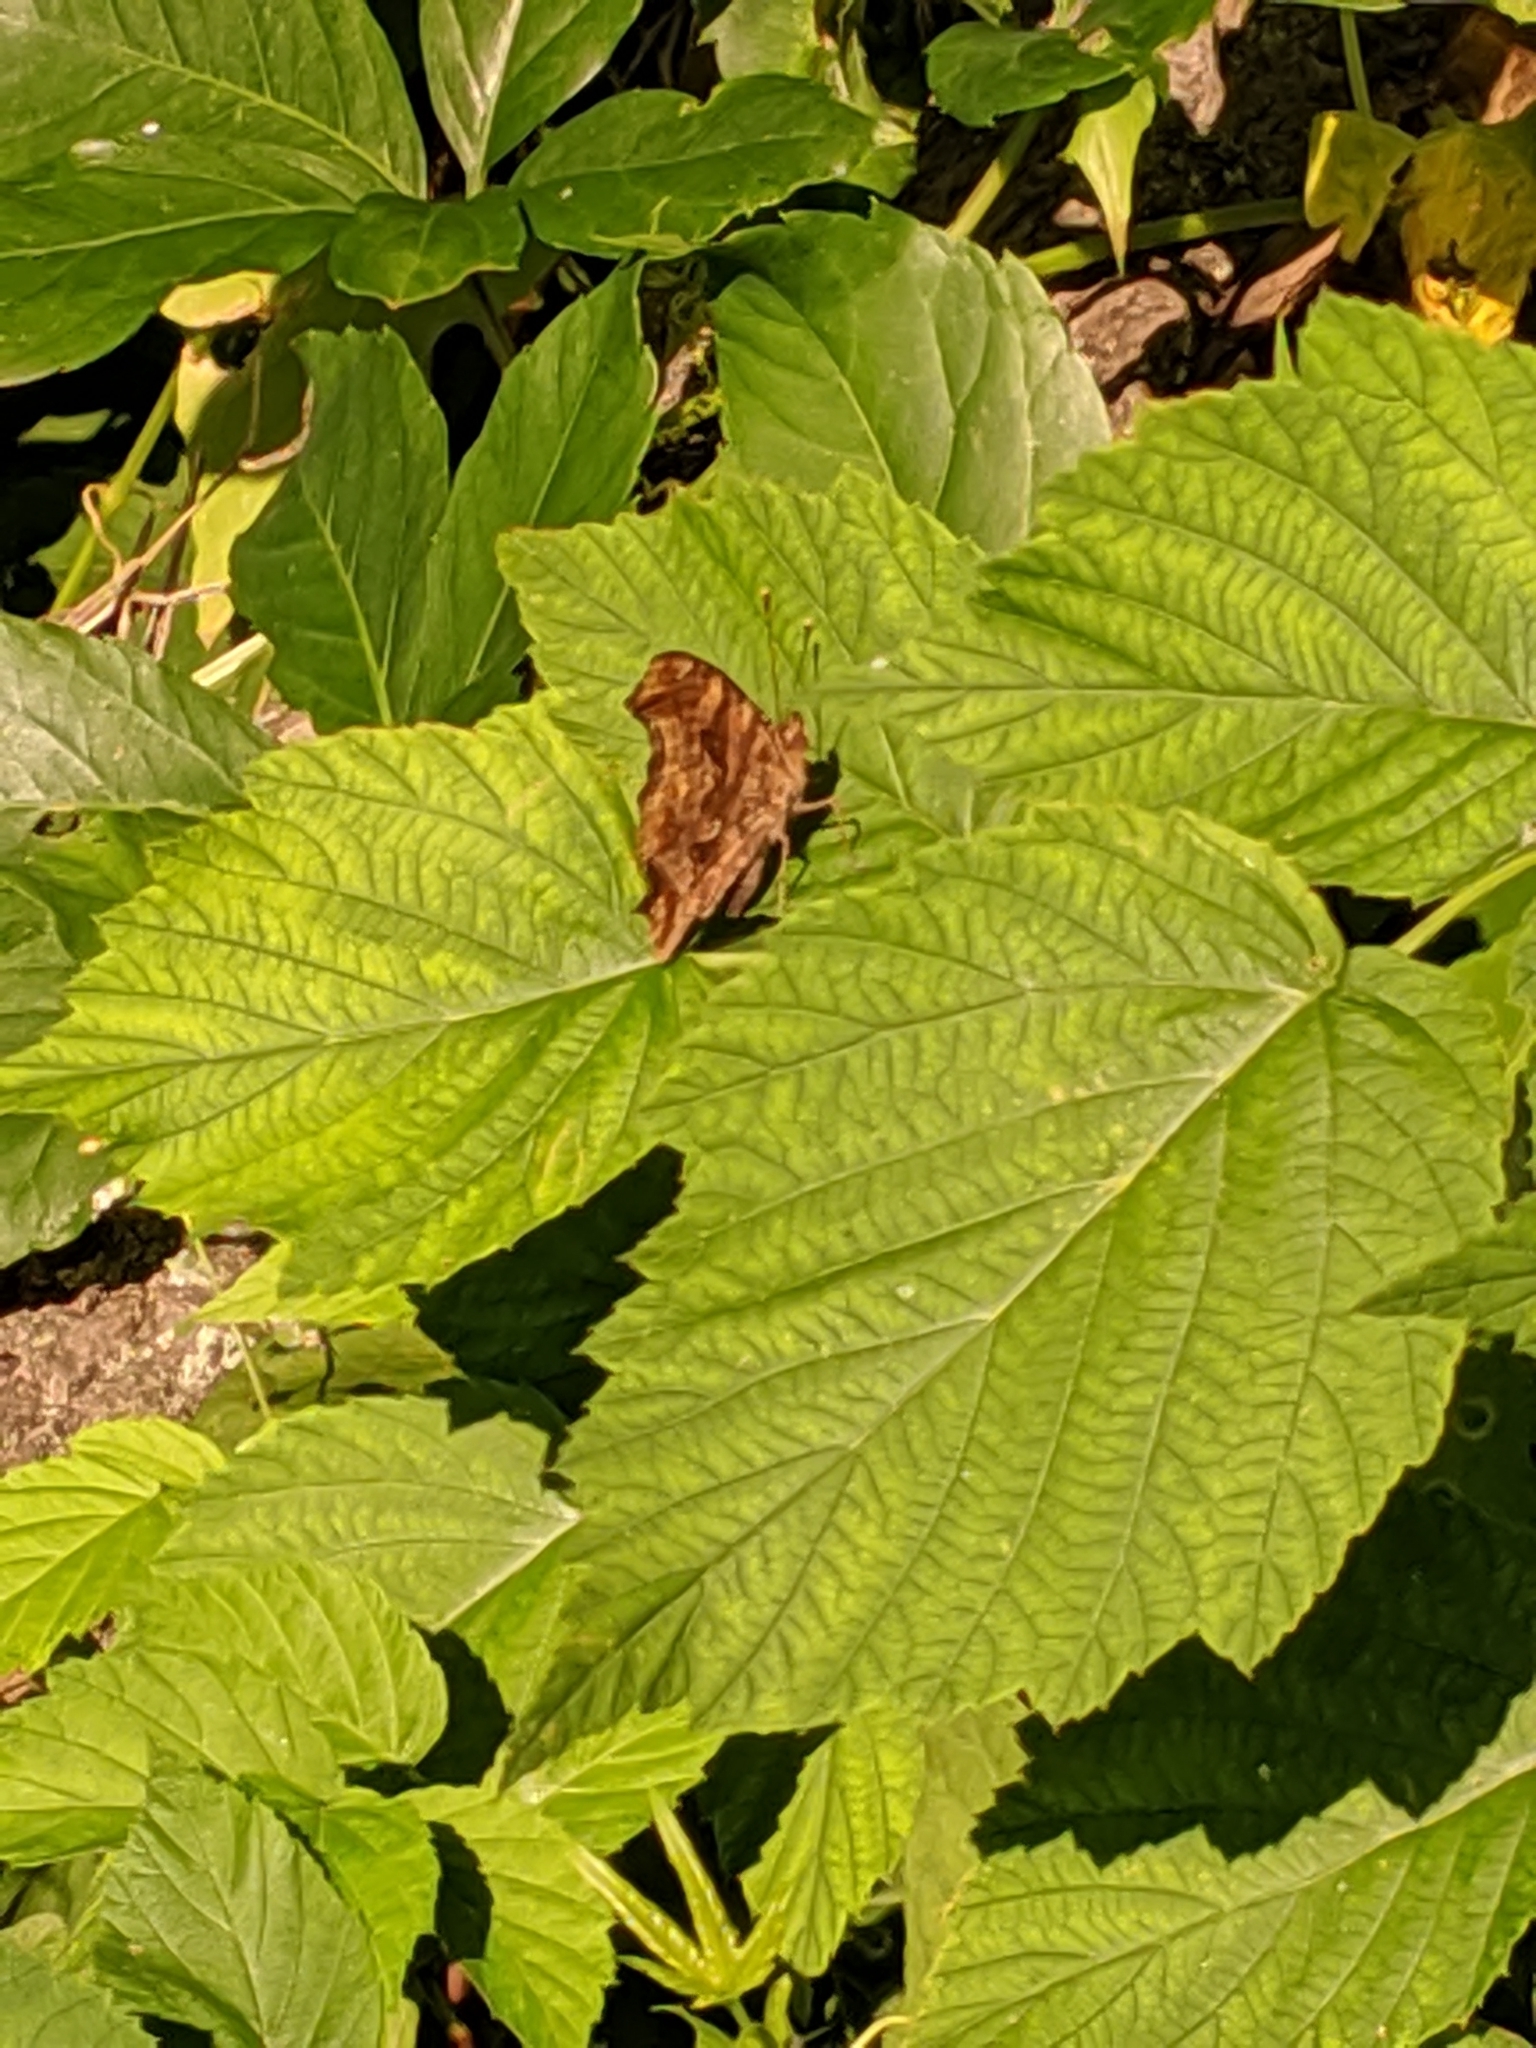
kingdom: Animalia
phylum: Arthropoda
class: Insecta
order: Lepidoptera
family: Nymphalidae
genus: Polygonia
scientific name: Polygonia comma
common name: Eastern comma
